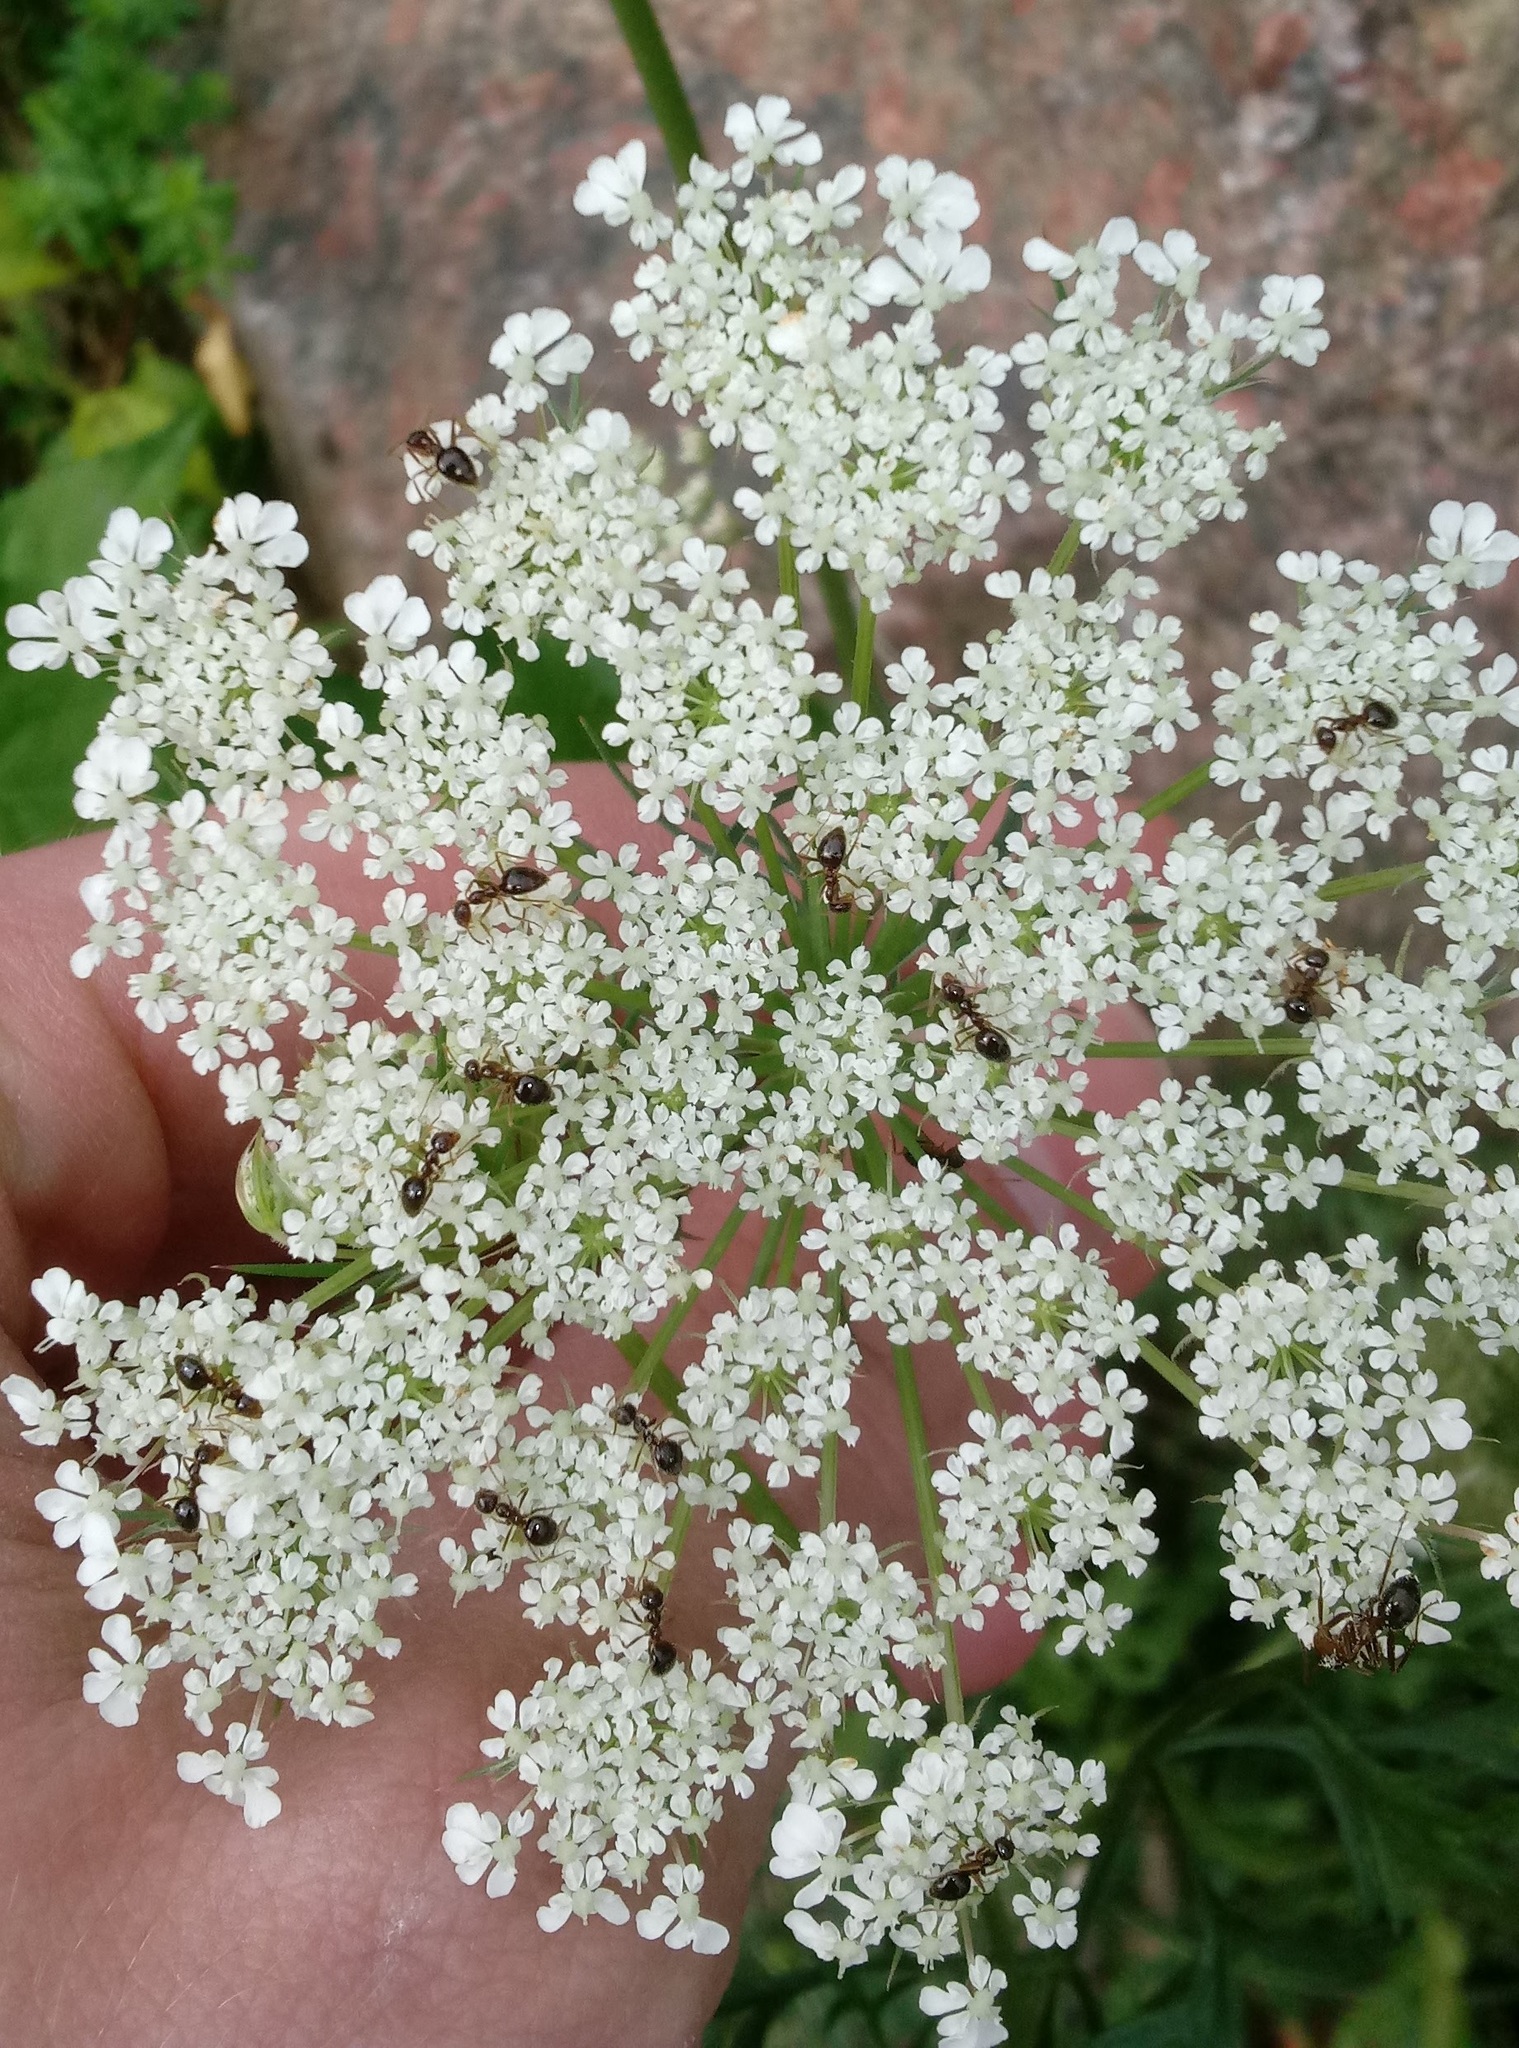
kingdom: Animalia
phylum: Arthropoda
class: Insecta
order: Hymenoptera
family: Formicidae
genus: Prenolepis
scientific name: Prenolepis imparis
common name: Small honey ant
